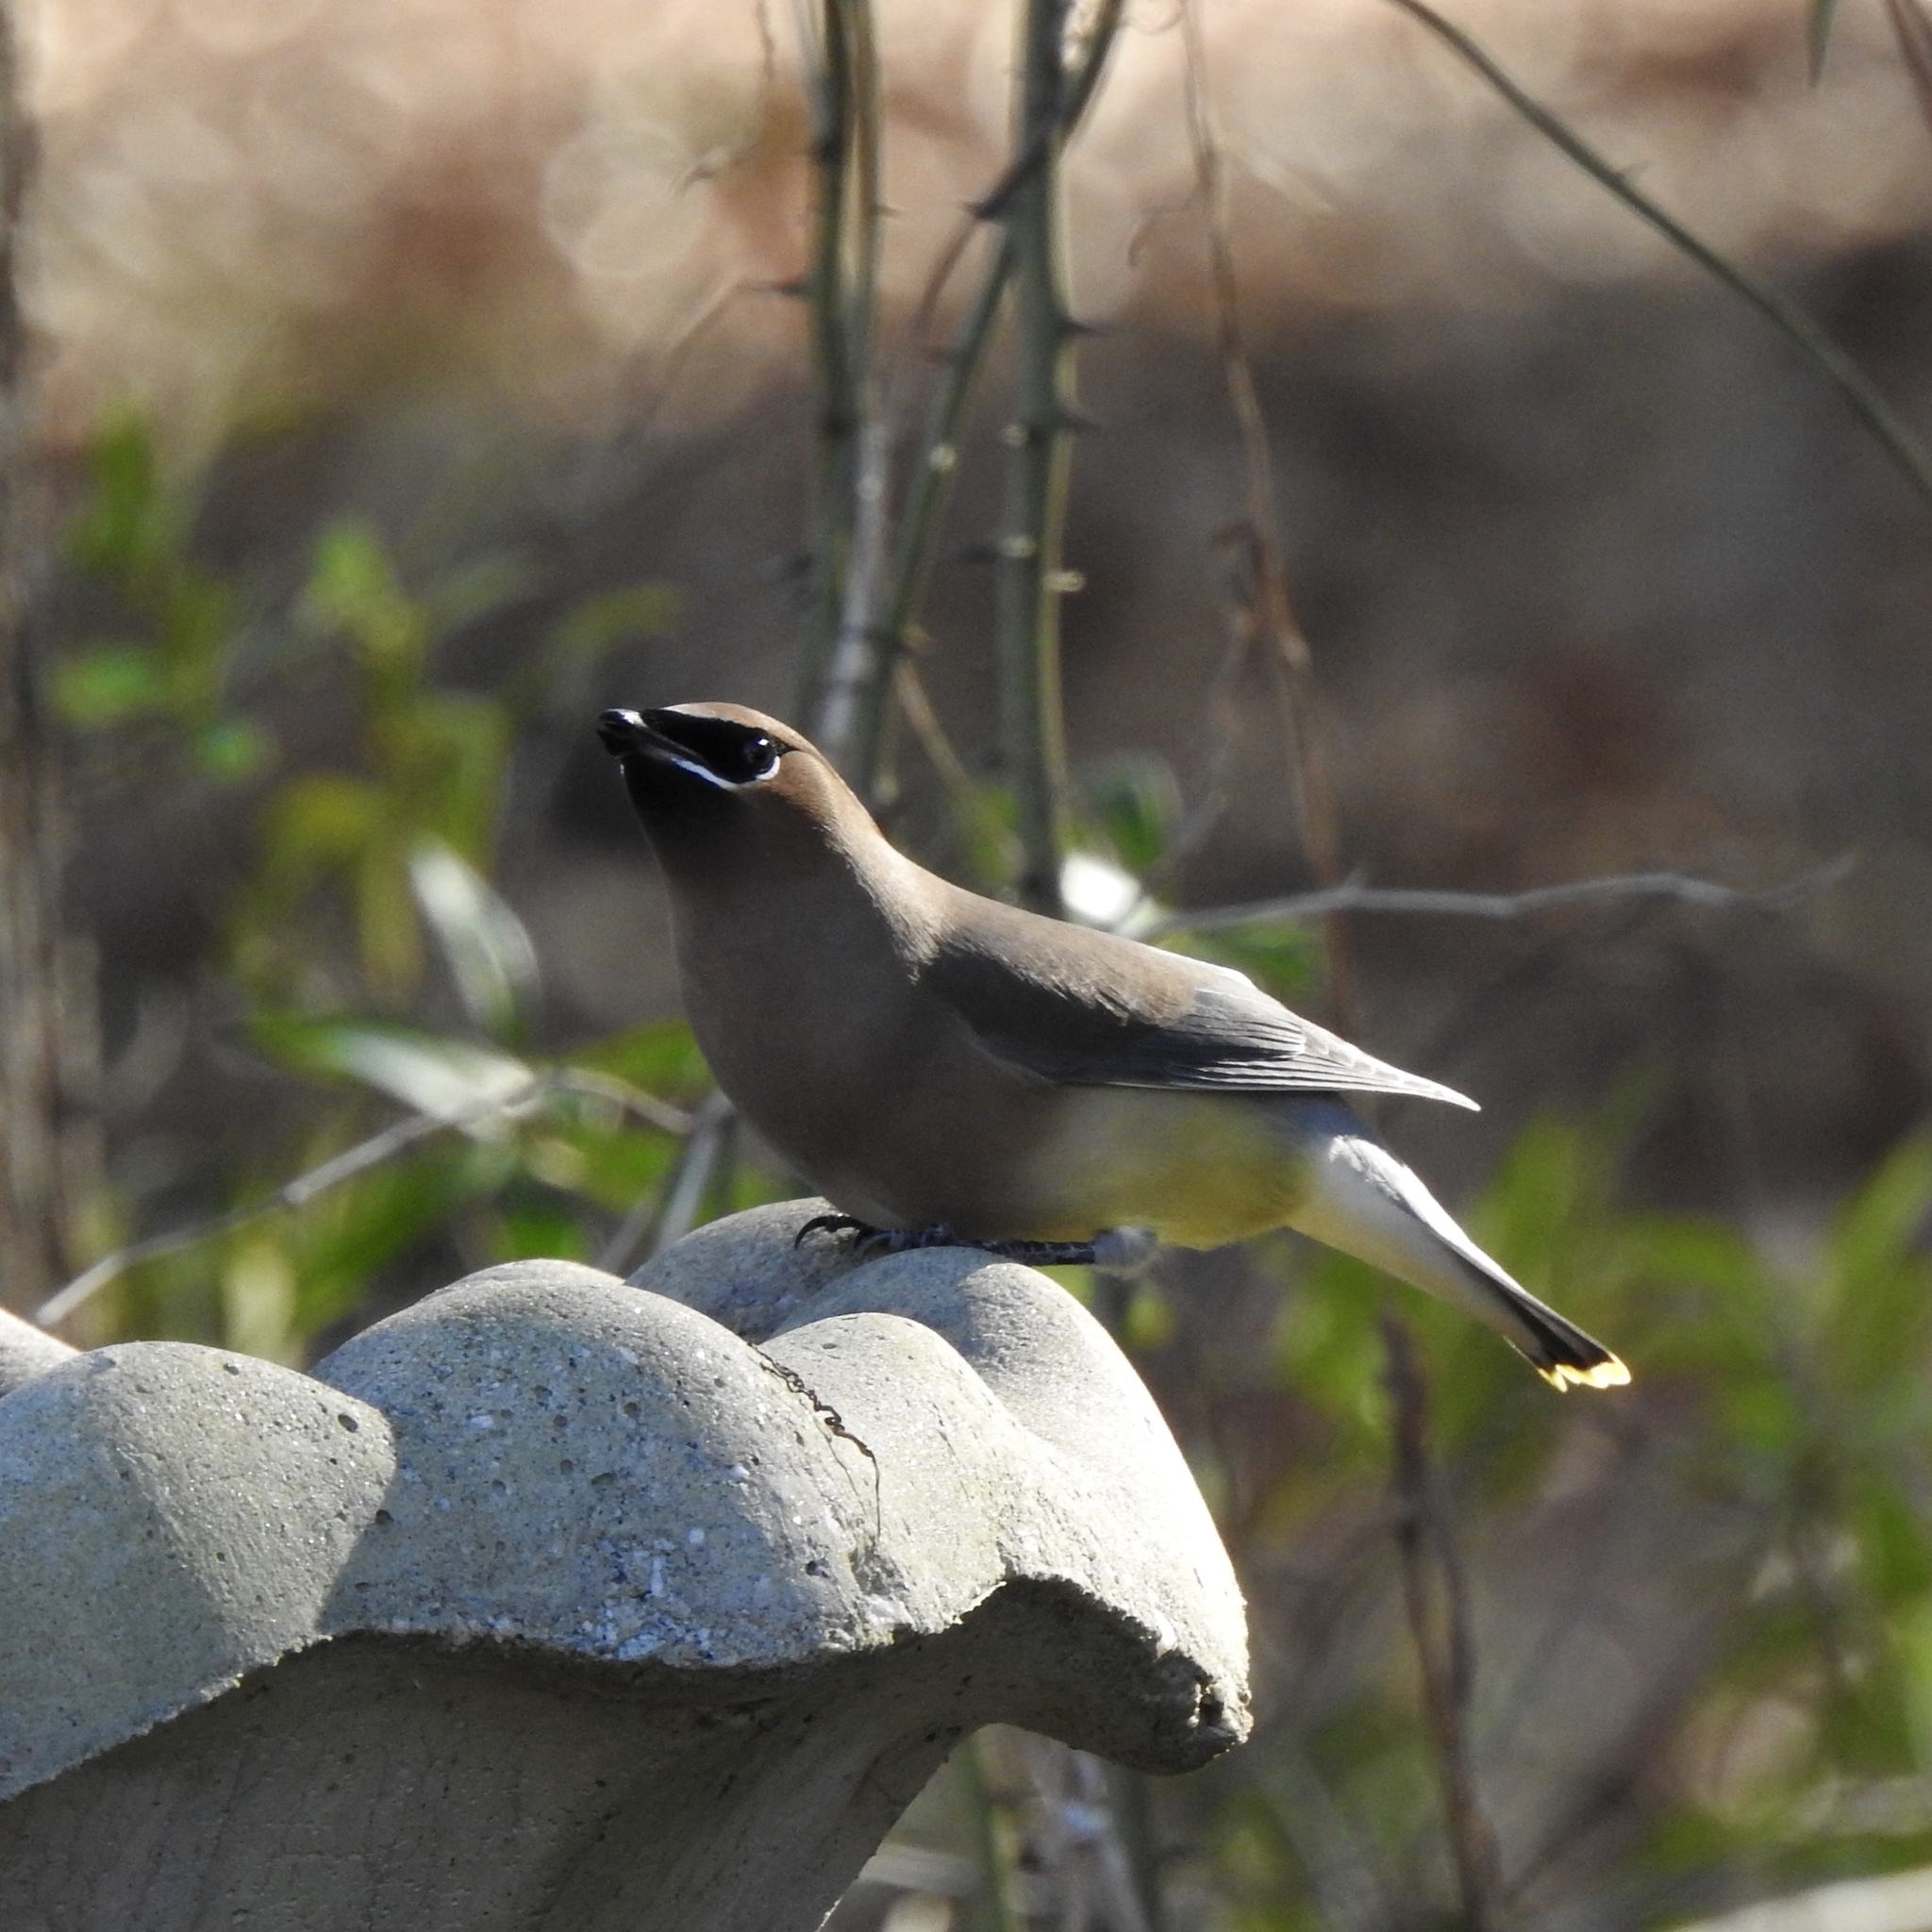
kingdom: Animalia
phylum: Chordata
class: Aves
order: Passeriformes
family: Bombycillidae
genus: Bombycilla
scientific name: Bombycilla cedrorum
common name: Cedar waxwing
